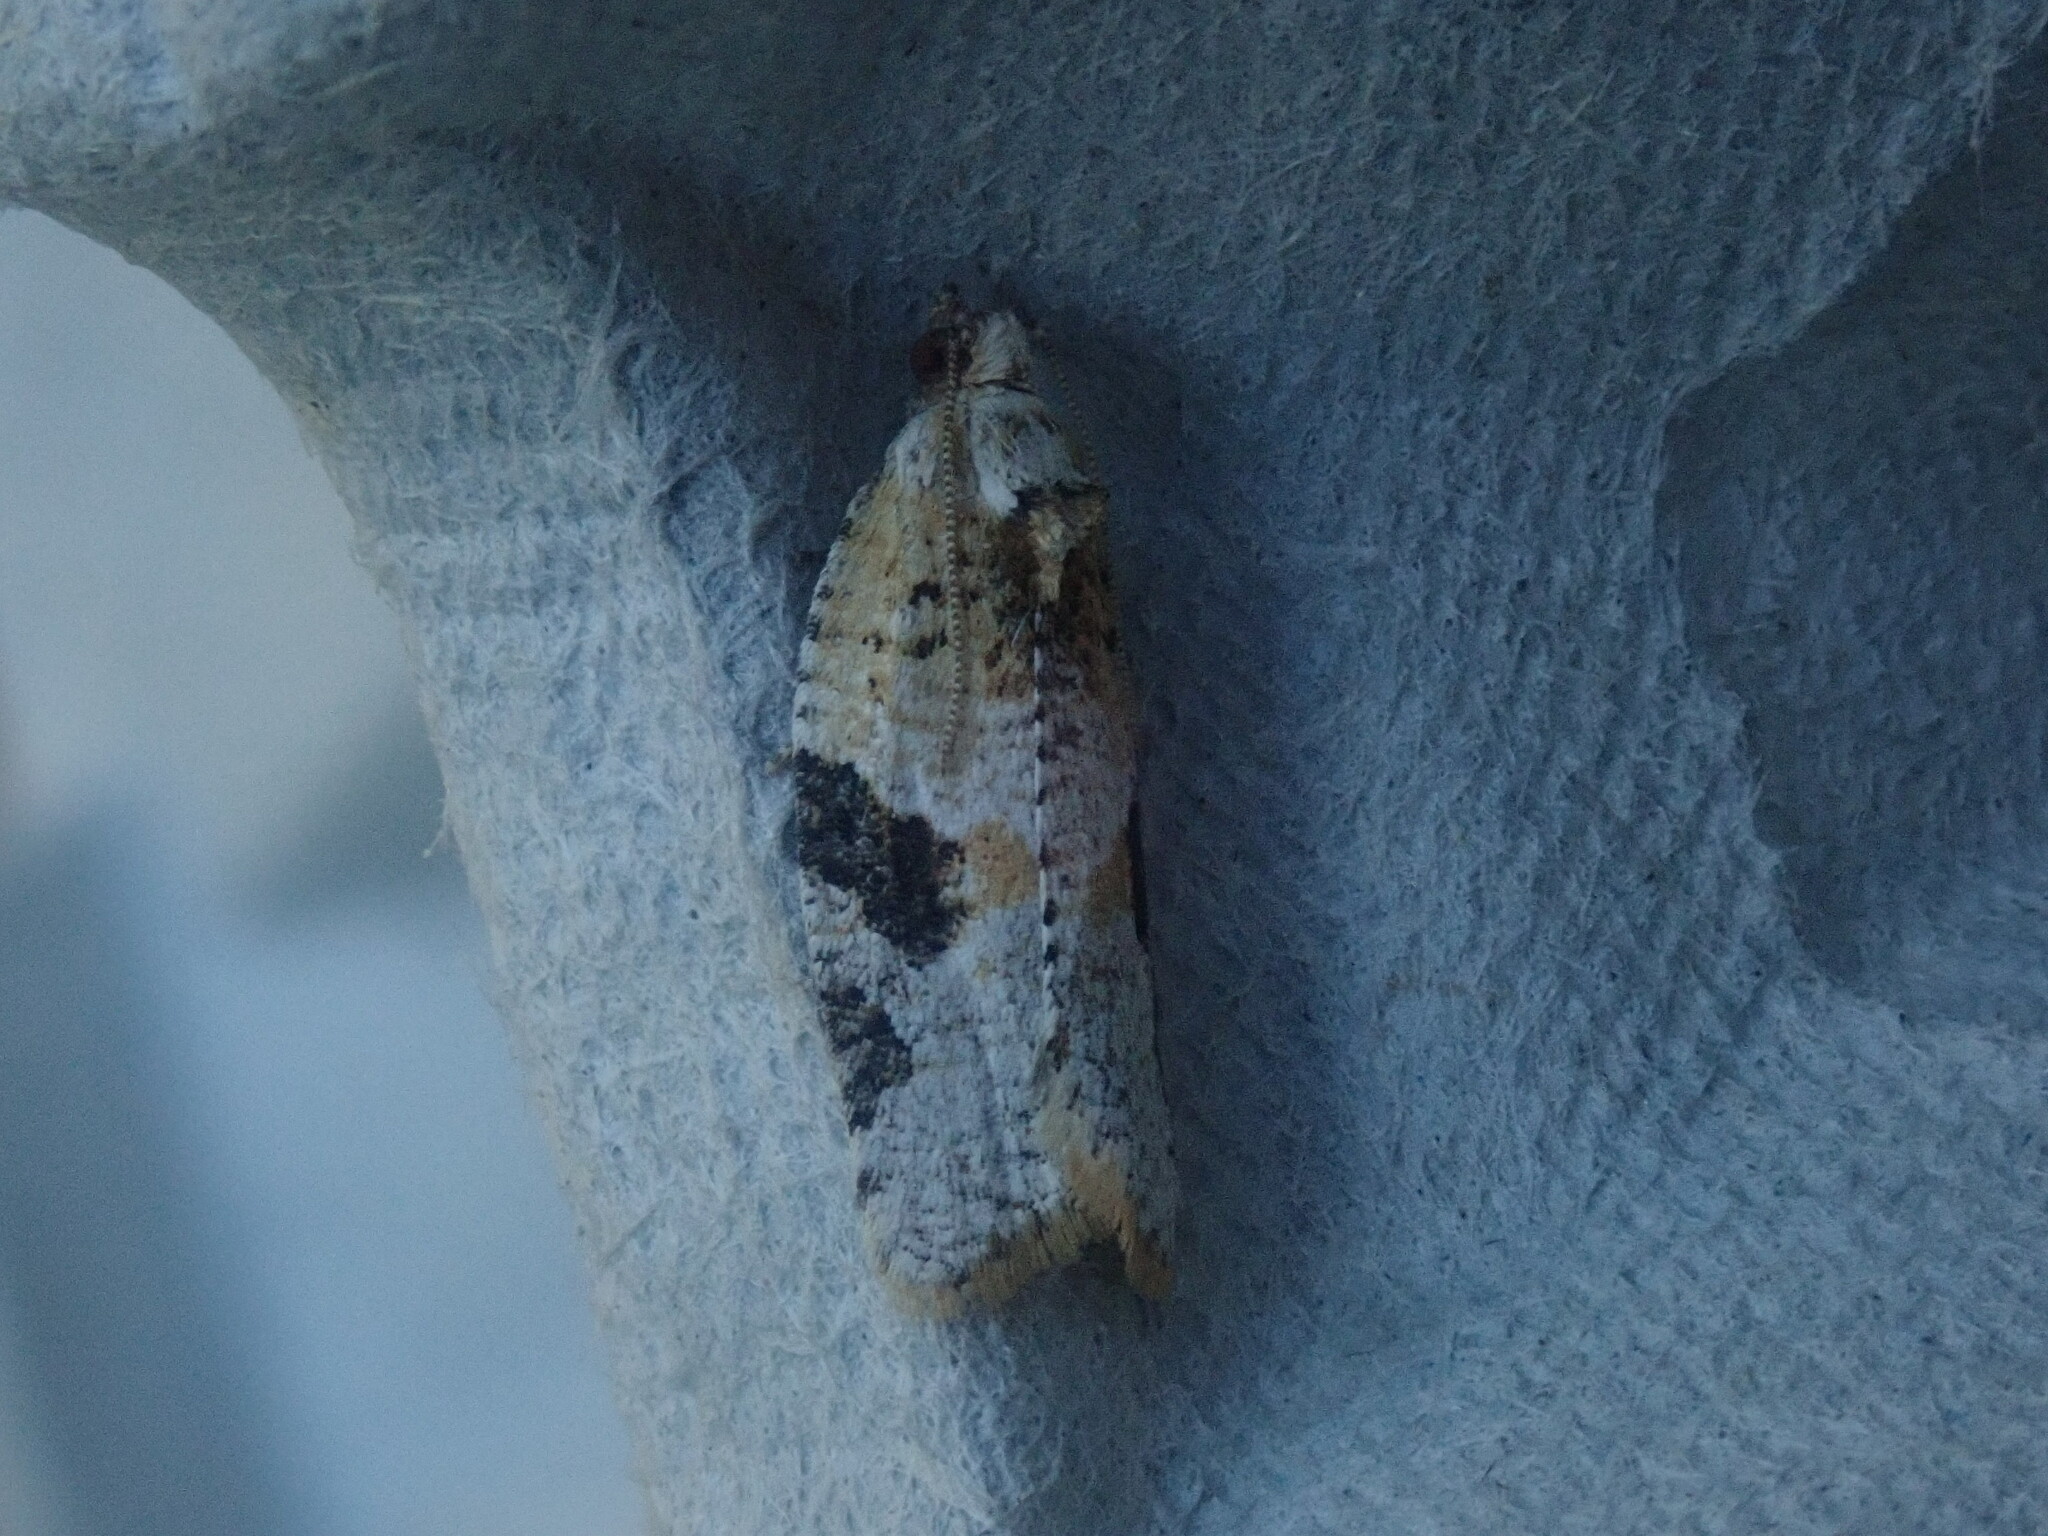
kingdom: Animalia
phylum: Arthropoda
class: Insecta
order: Lepidoptera
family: Tortricidae
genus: Argyrotaenia
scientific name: Argyrotaenia mariana
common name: Gray-banded leafroller moth
